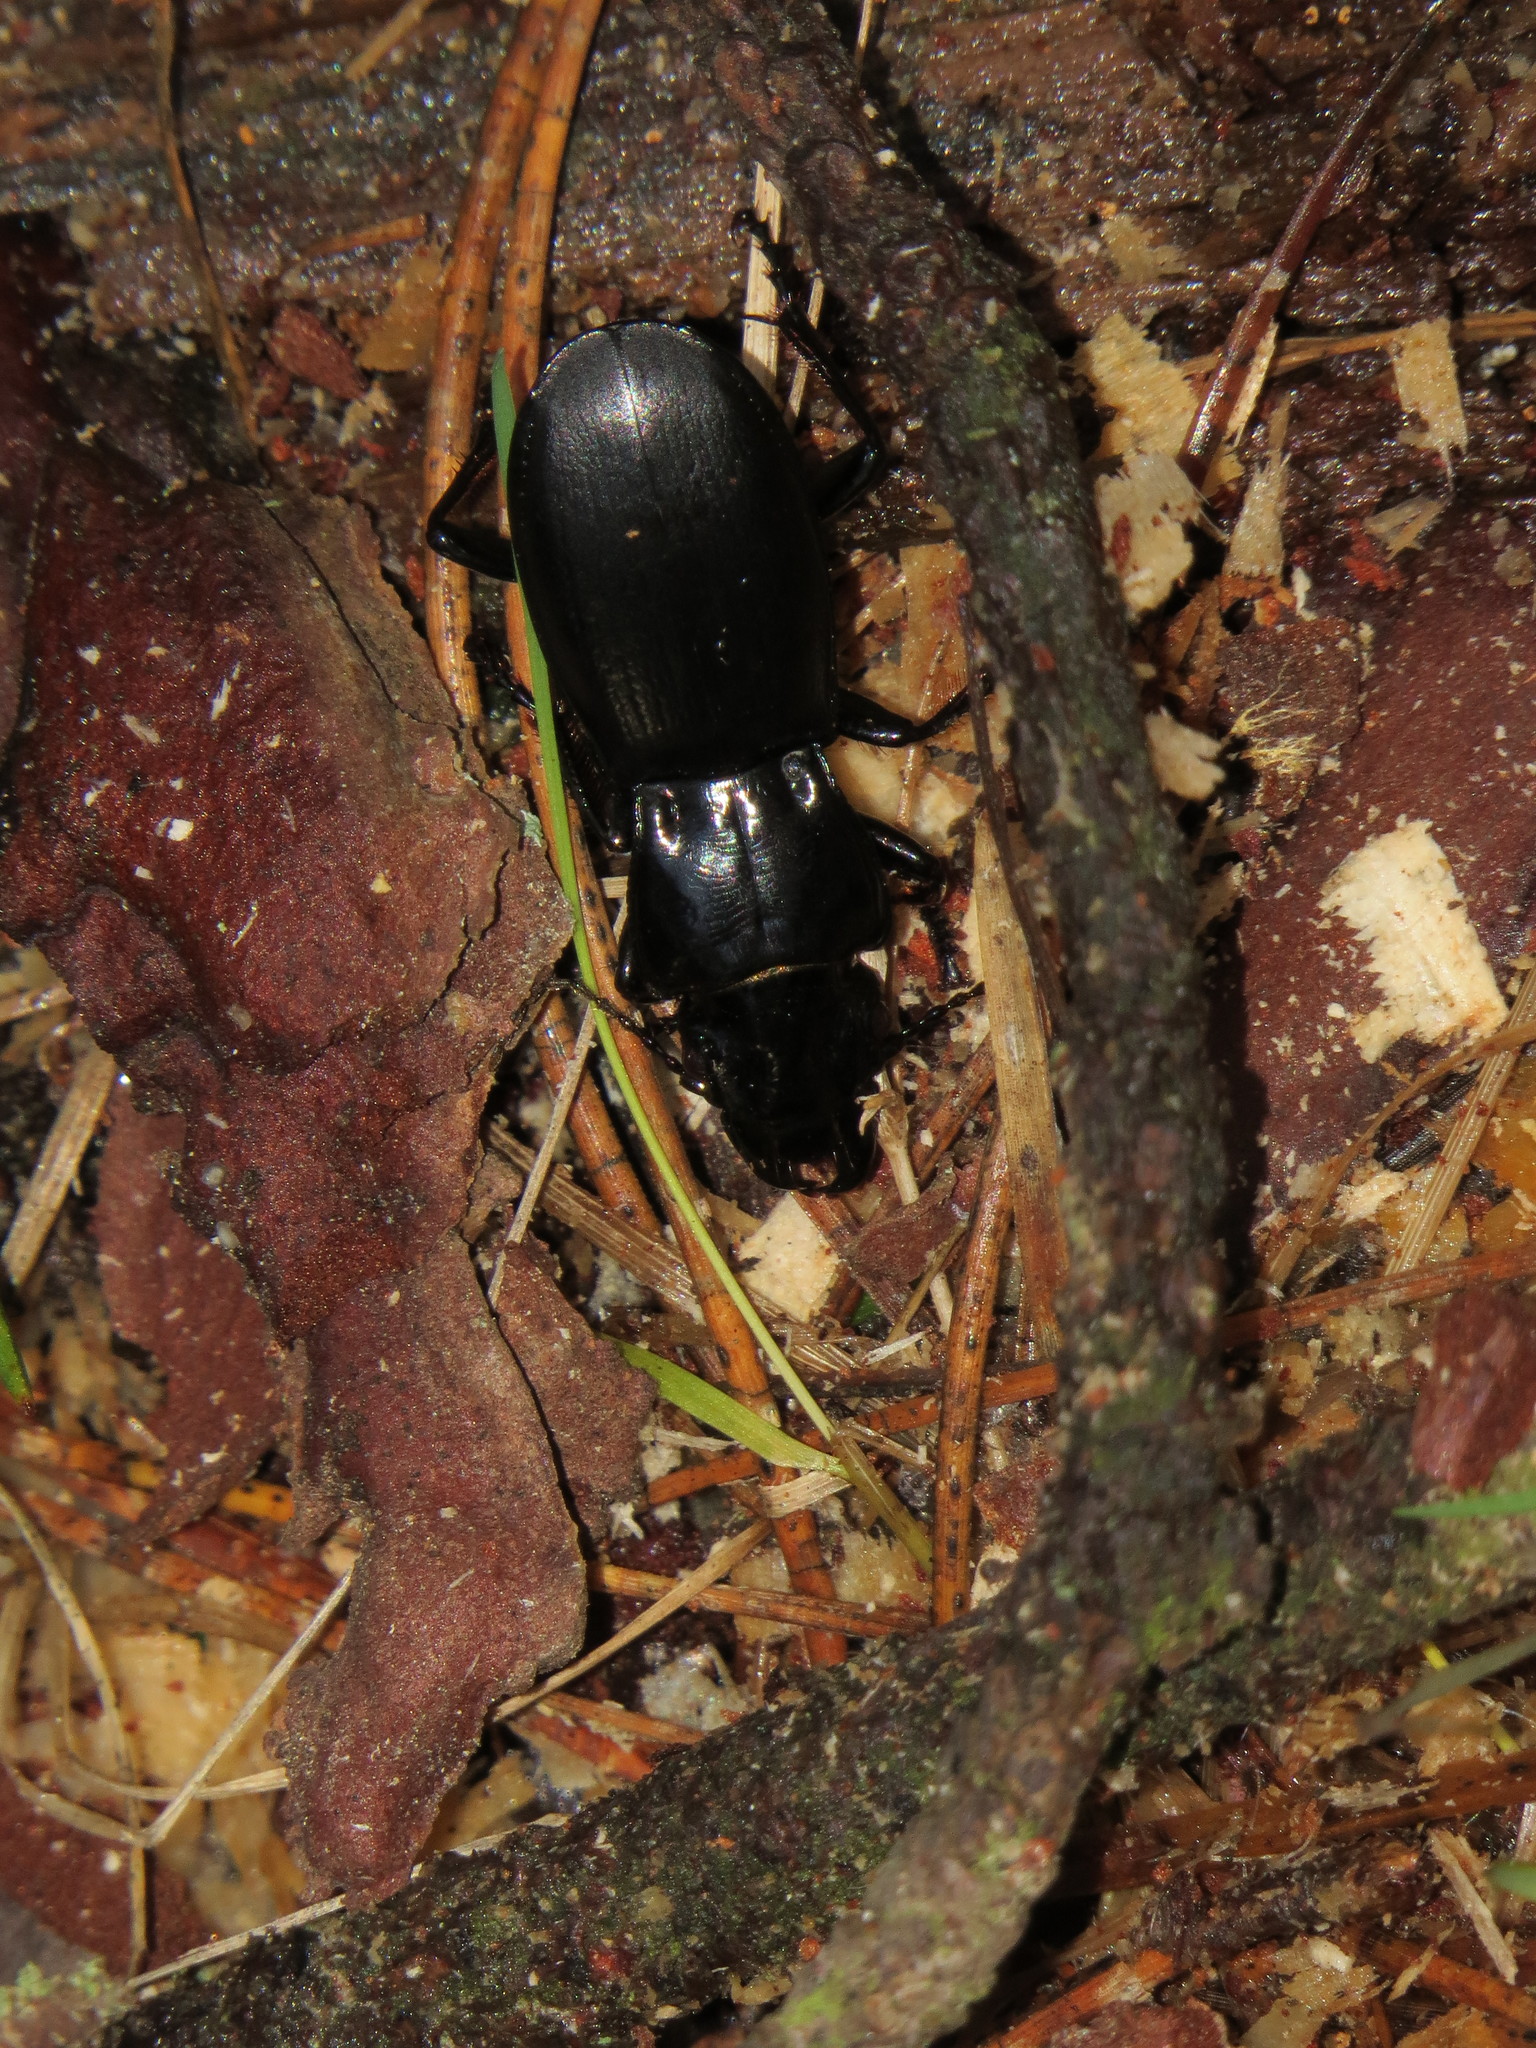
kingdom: Animalia
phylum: Arthropoda
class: Insecta
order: Coleoptera
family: Carabidae
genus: Percus
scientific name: Percus grandicollis
